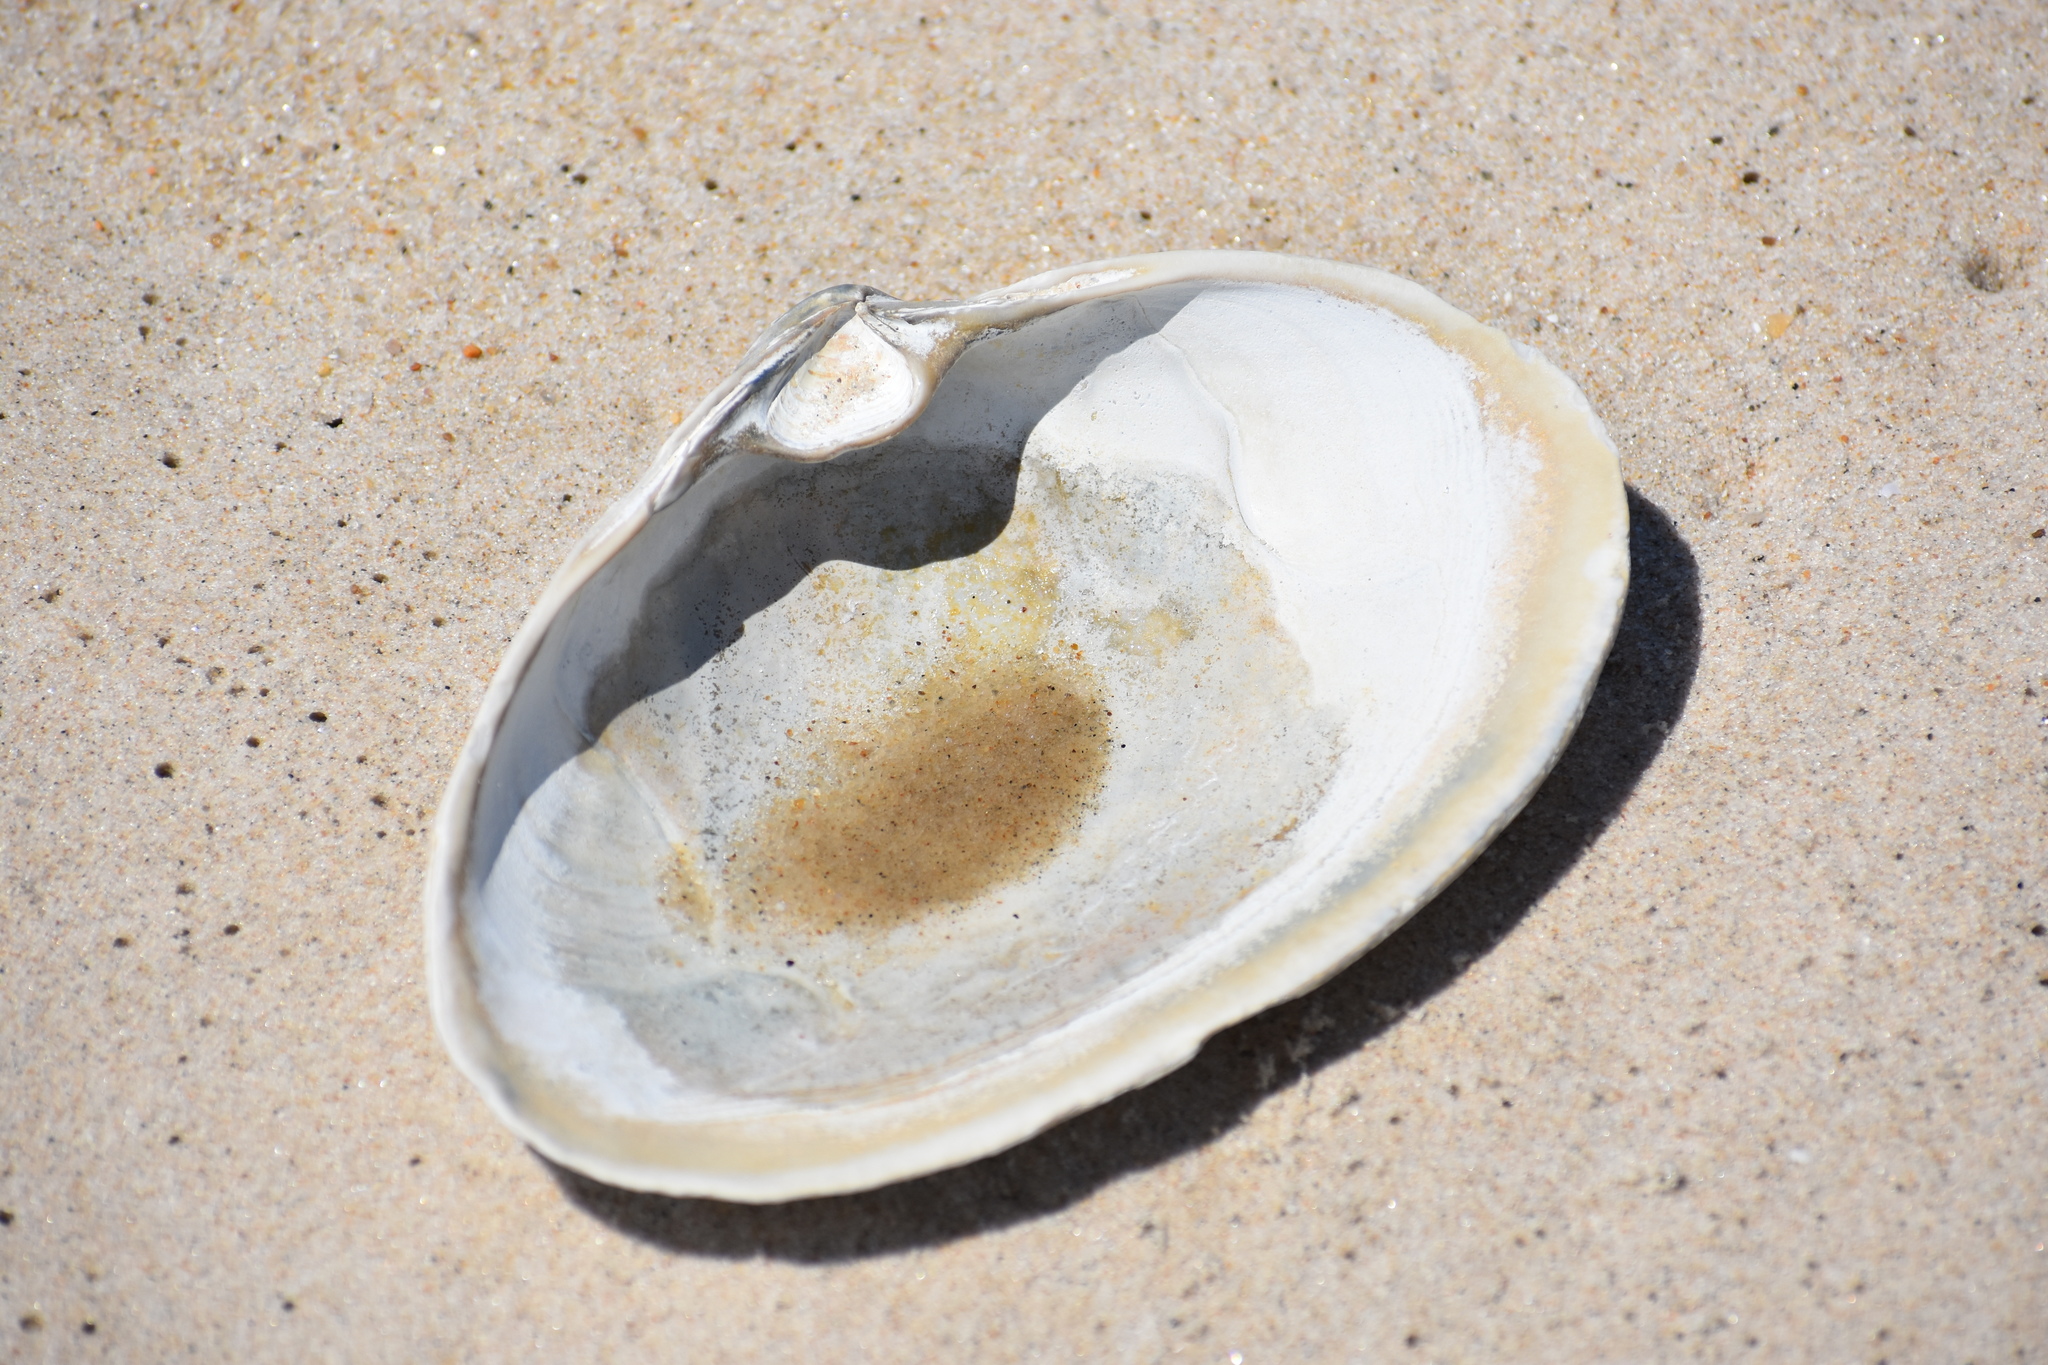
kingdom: Animalia
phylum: Mollusca
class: Bivalvia
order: Venerida
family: Mactridae
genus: Spisula
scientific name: Spisula solidissima
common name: Atlantic surf clam
